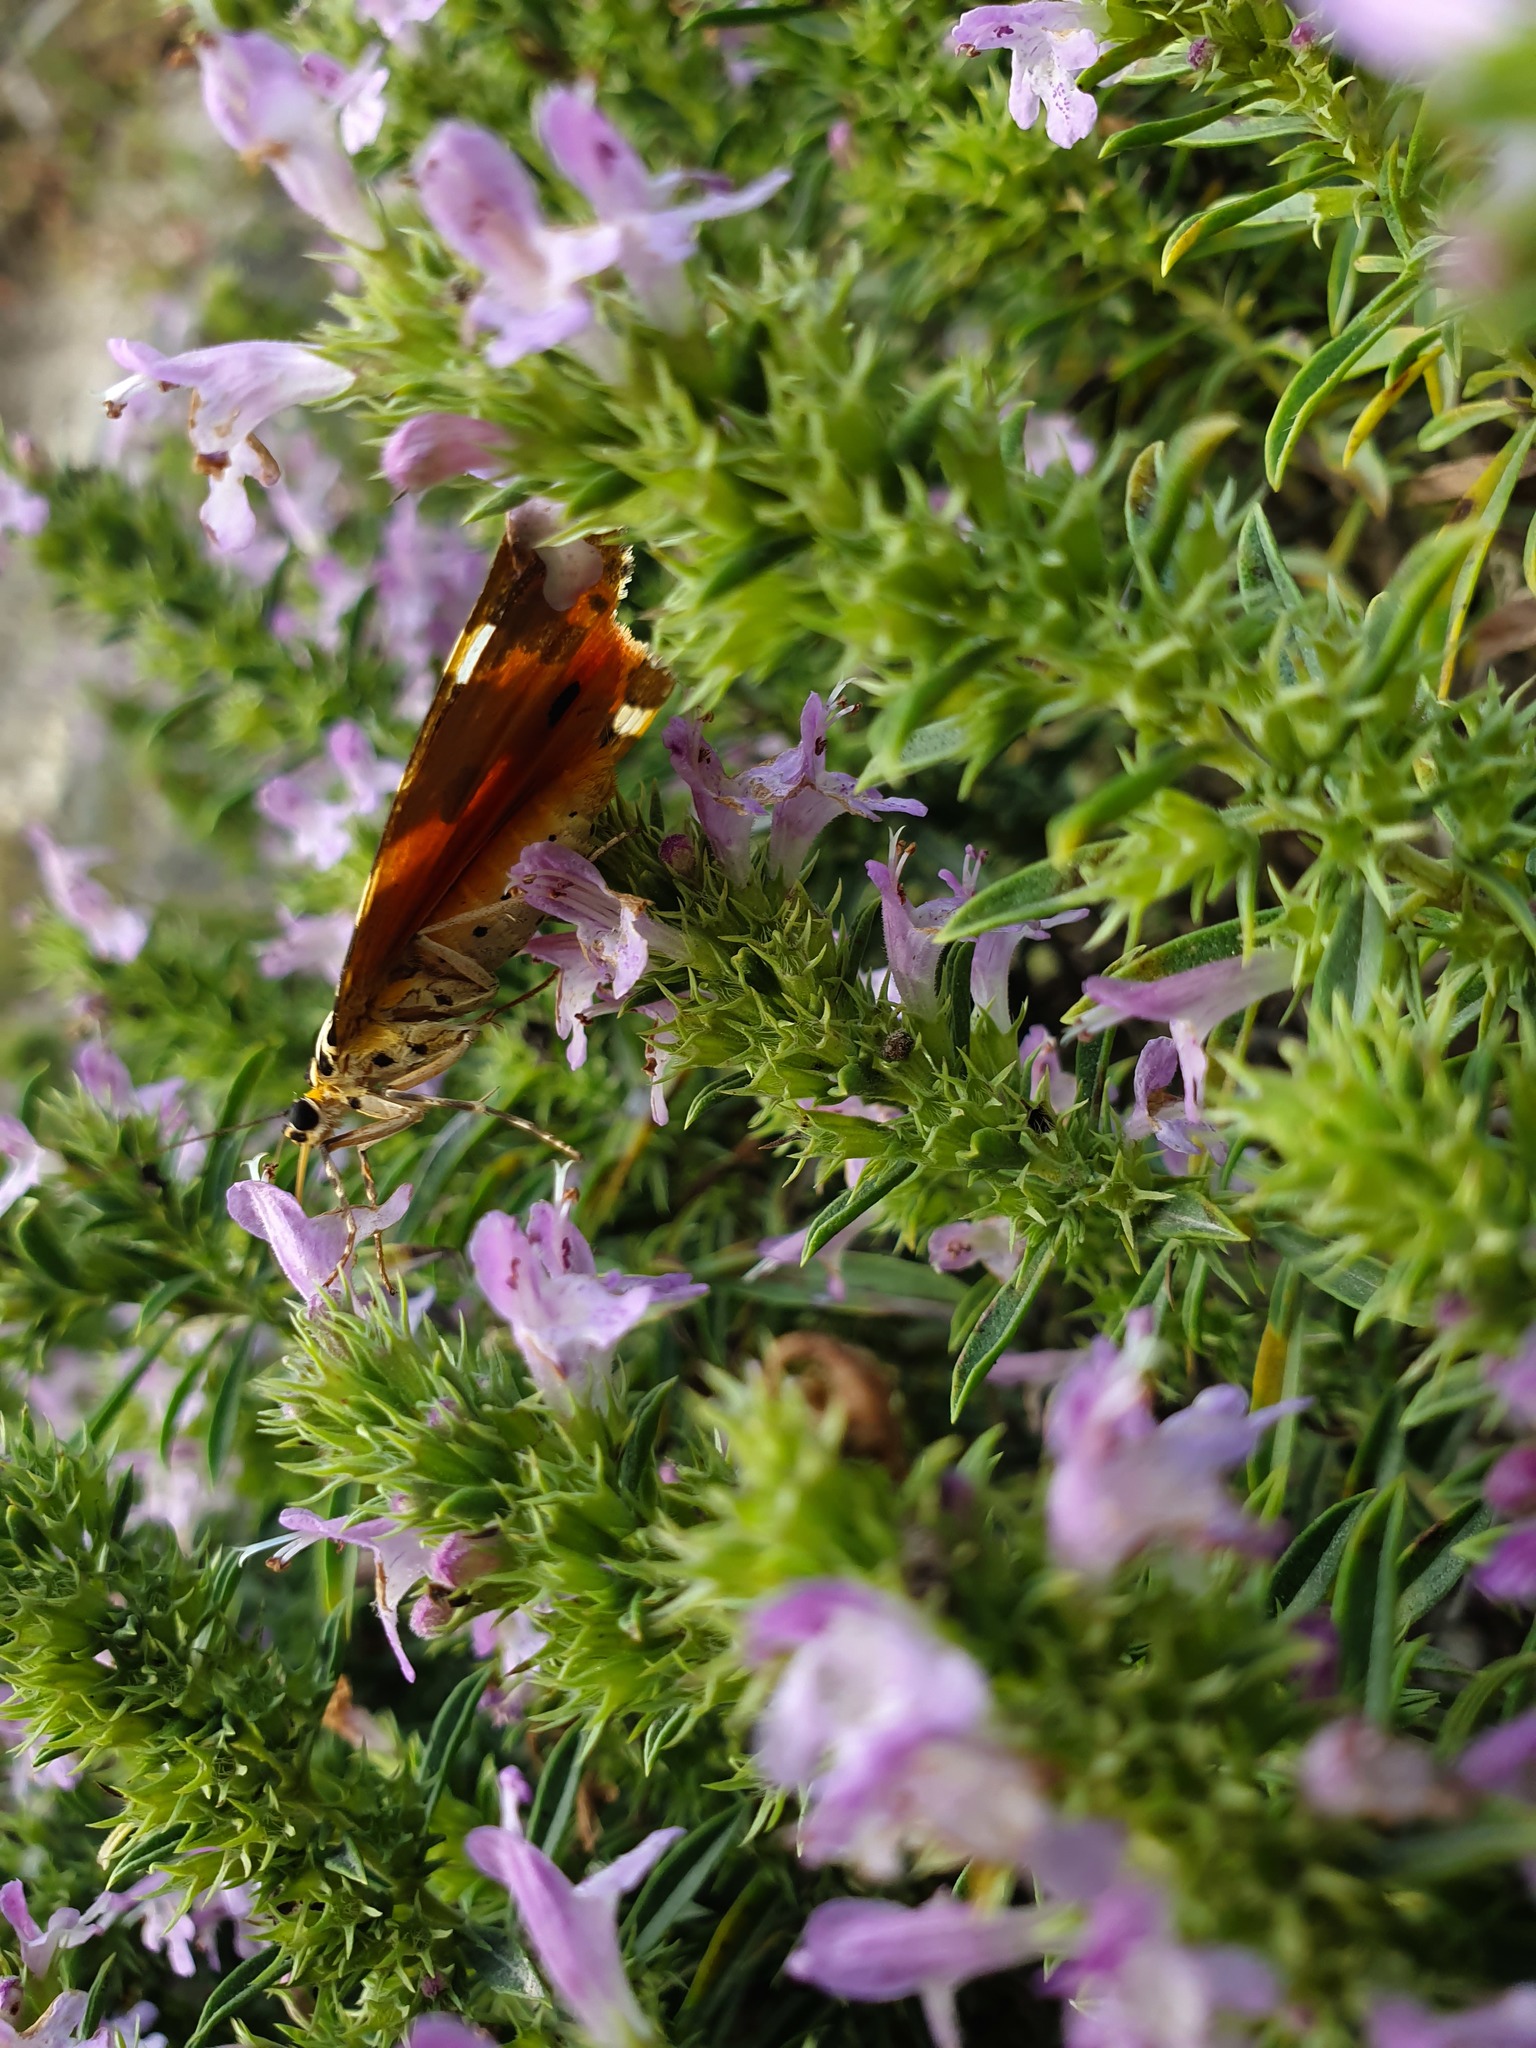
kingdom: Animalia
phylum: Arthropoda
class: Insecta
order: Lepidoptera
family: Erebidae
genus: Euplagia
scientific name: Euplagia quadripunctaria
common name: Jersey tiger
